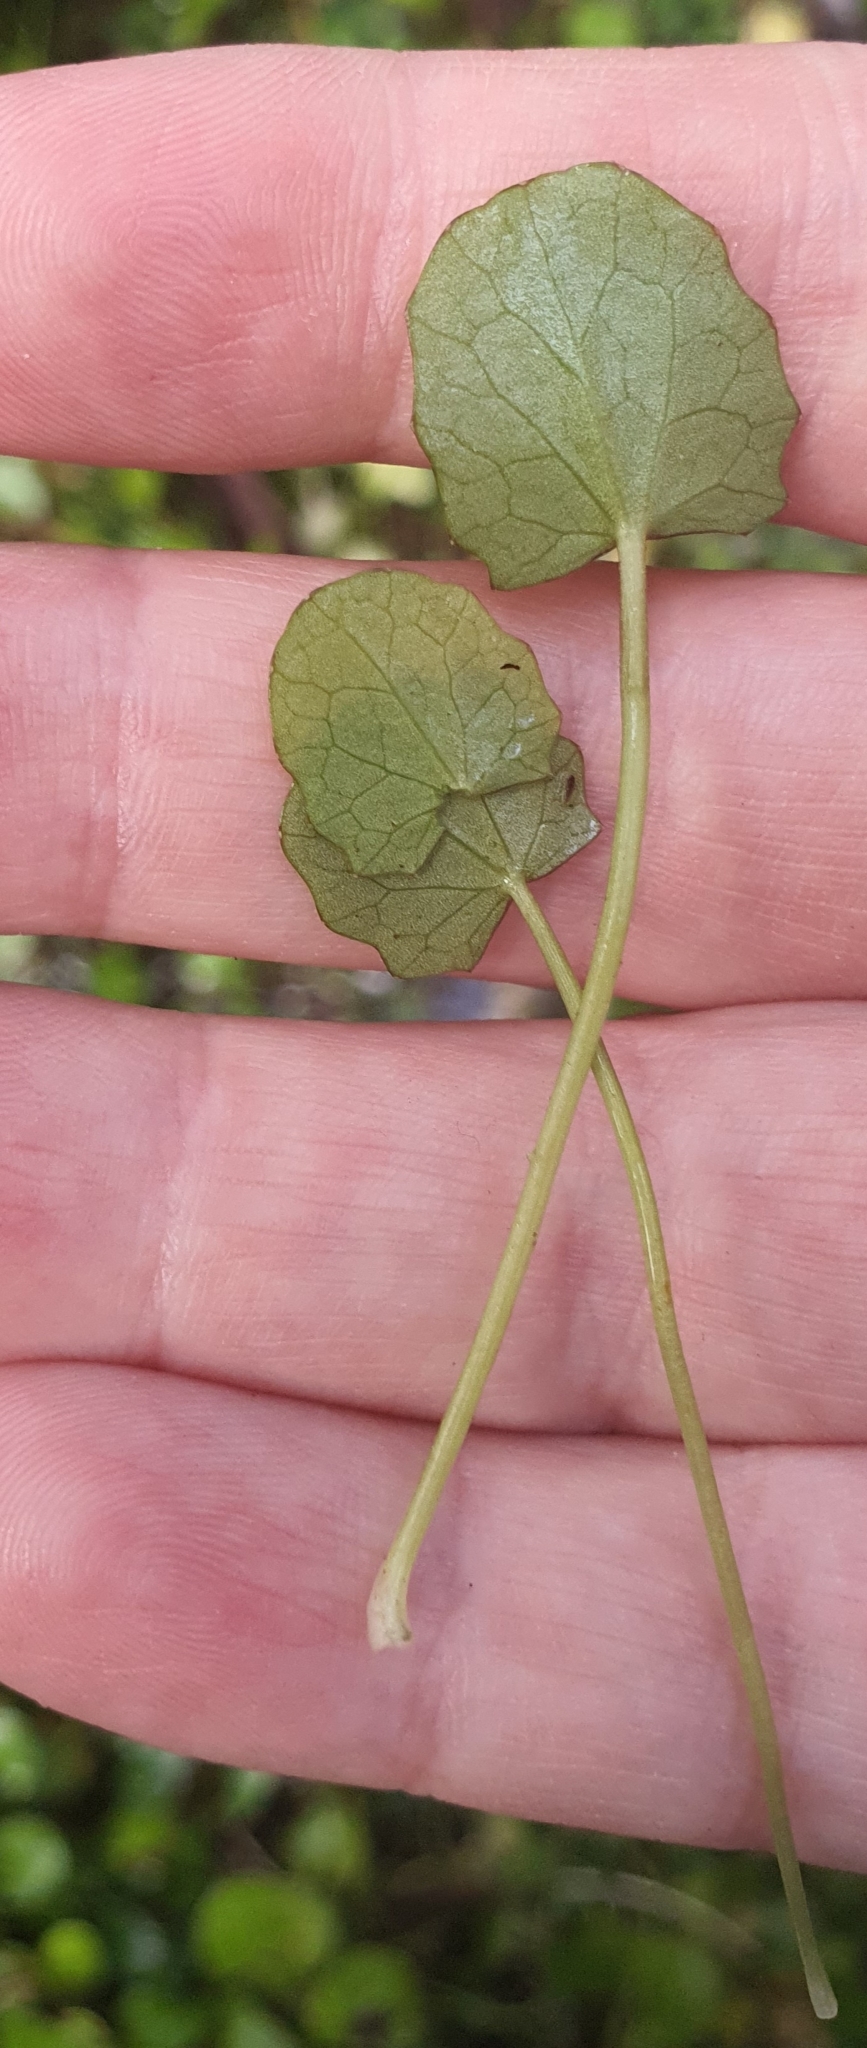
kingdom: Plantae
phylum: Tracheophyta
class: Magnoliopsida
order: Apiales
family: Apiaceae
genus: Centella
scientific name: Centella uniflora
